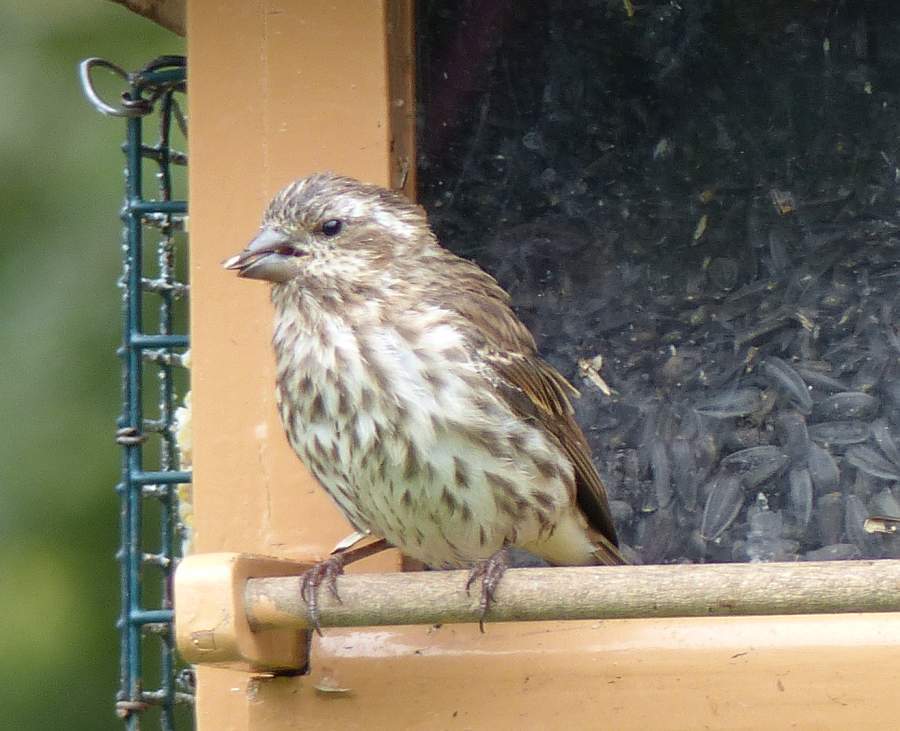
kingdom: Animalia
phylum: Chordata
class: Aves
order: Passeriformes
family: Fringillidae
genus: Haemorhous
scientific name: Haemorhous purpureus
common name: Purple finch
